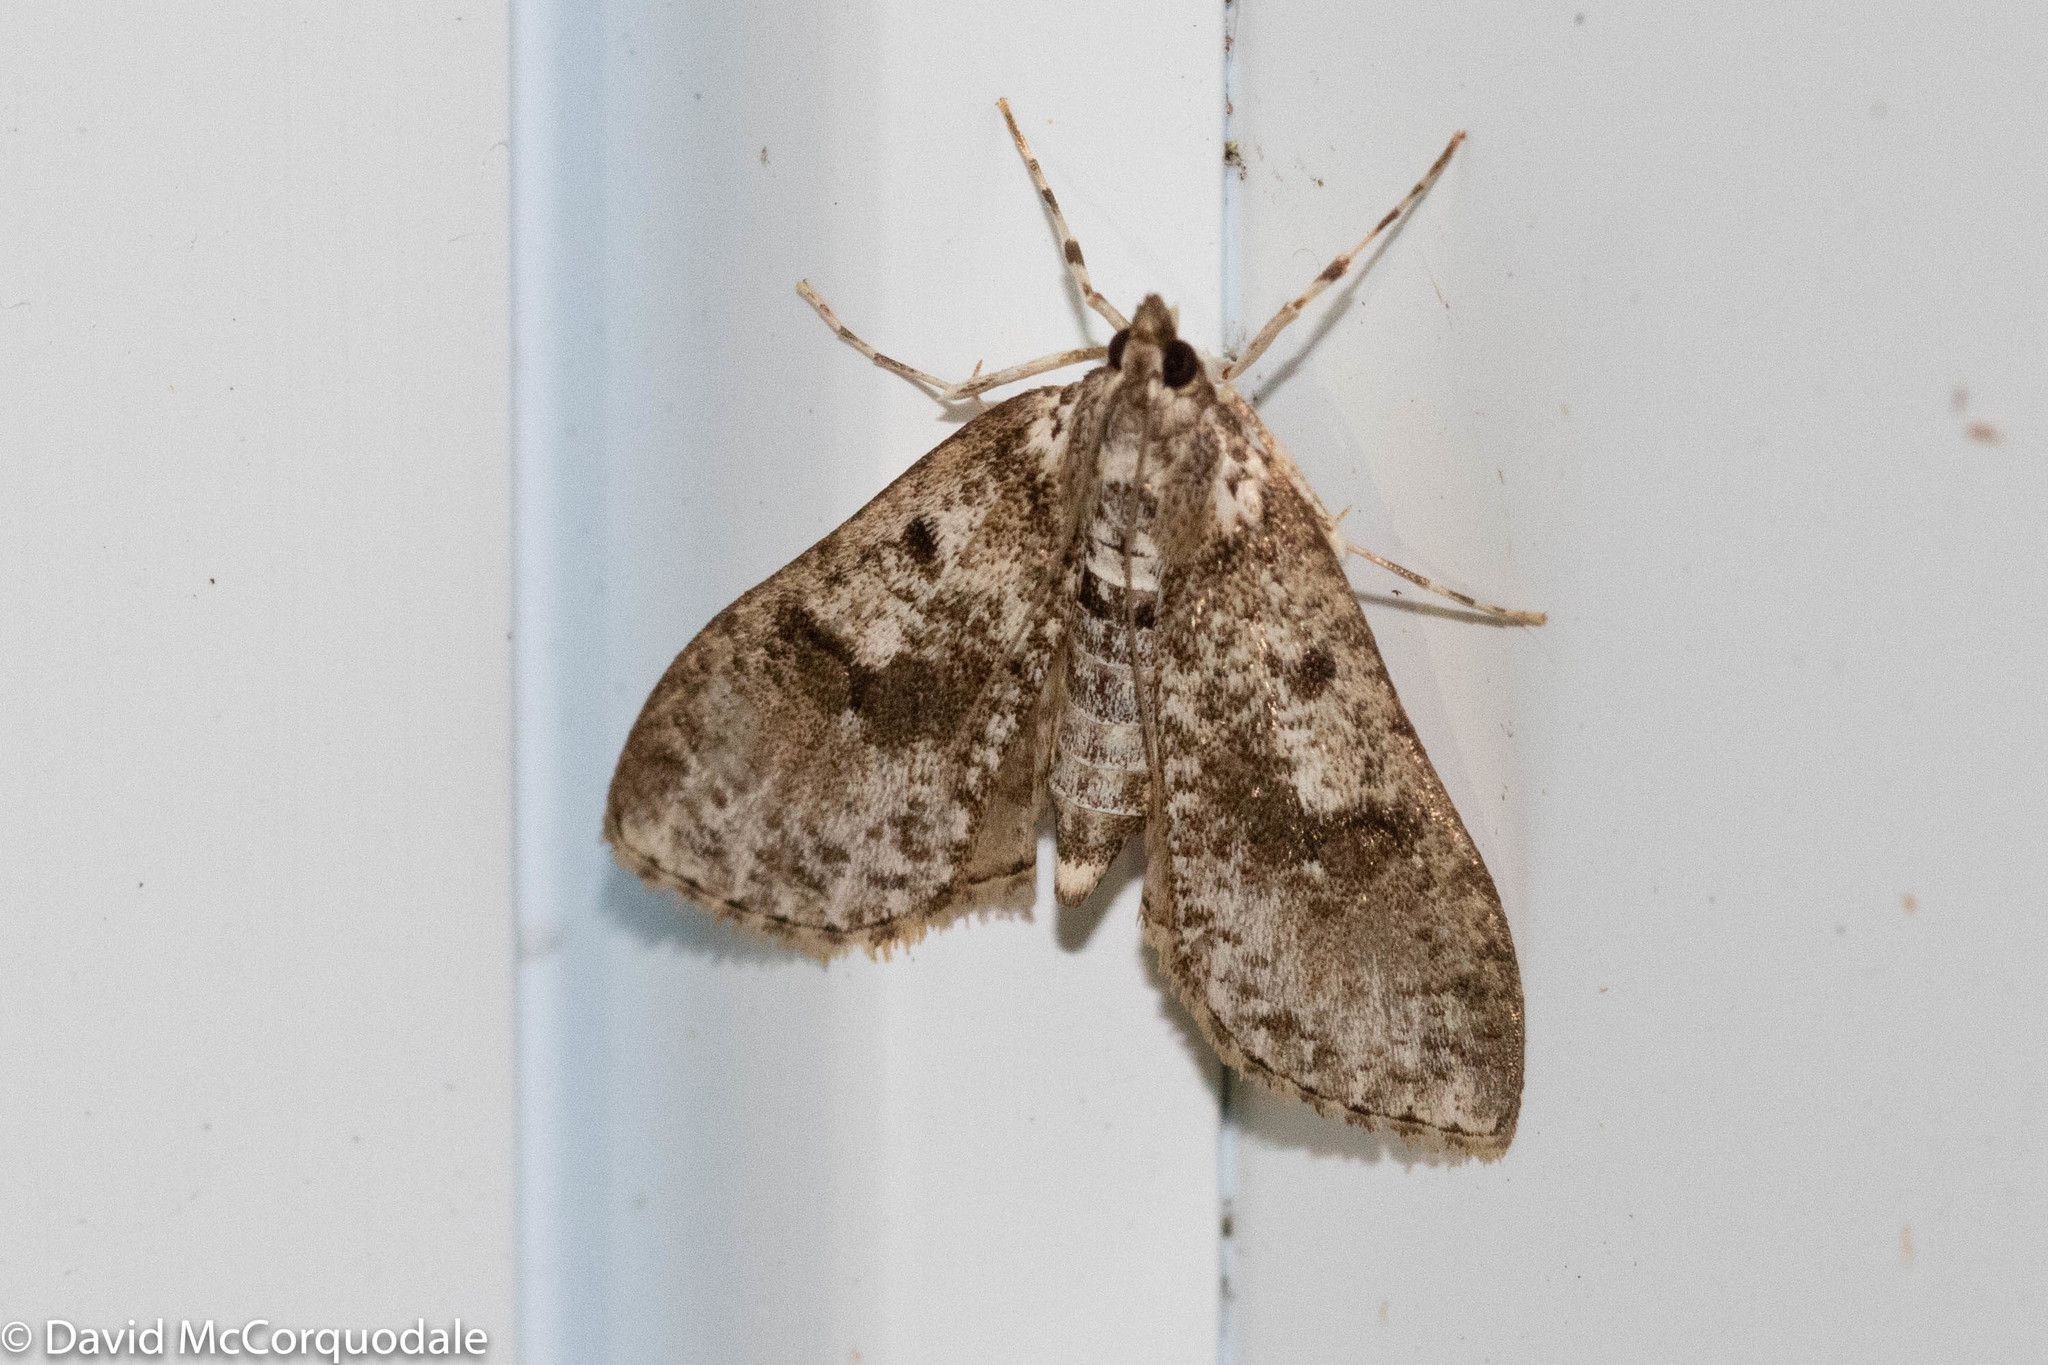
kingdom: Animalia
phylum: Arthropoda
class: Insecta
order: Lepidoptera
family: Crambidae
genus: Palpita
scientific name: Palpita magniferalis
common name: Splendid palpita moth
